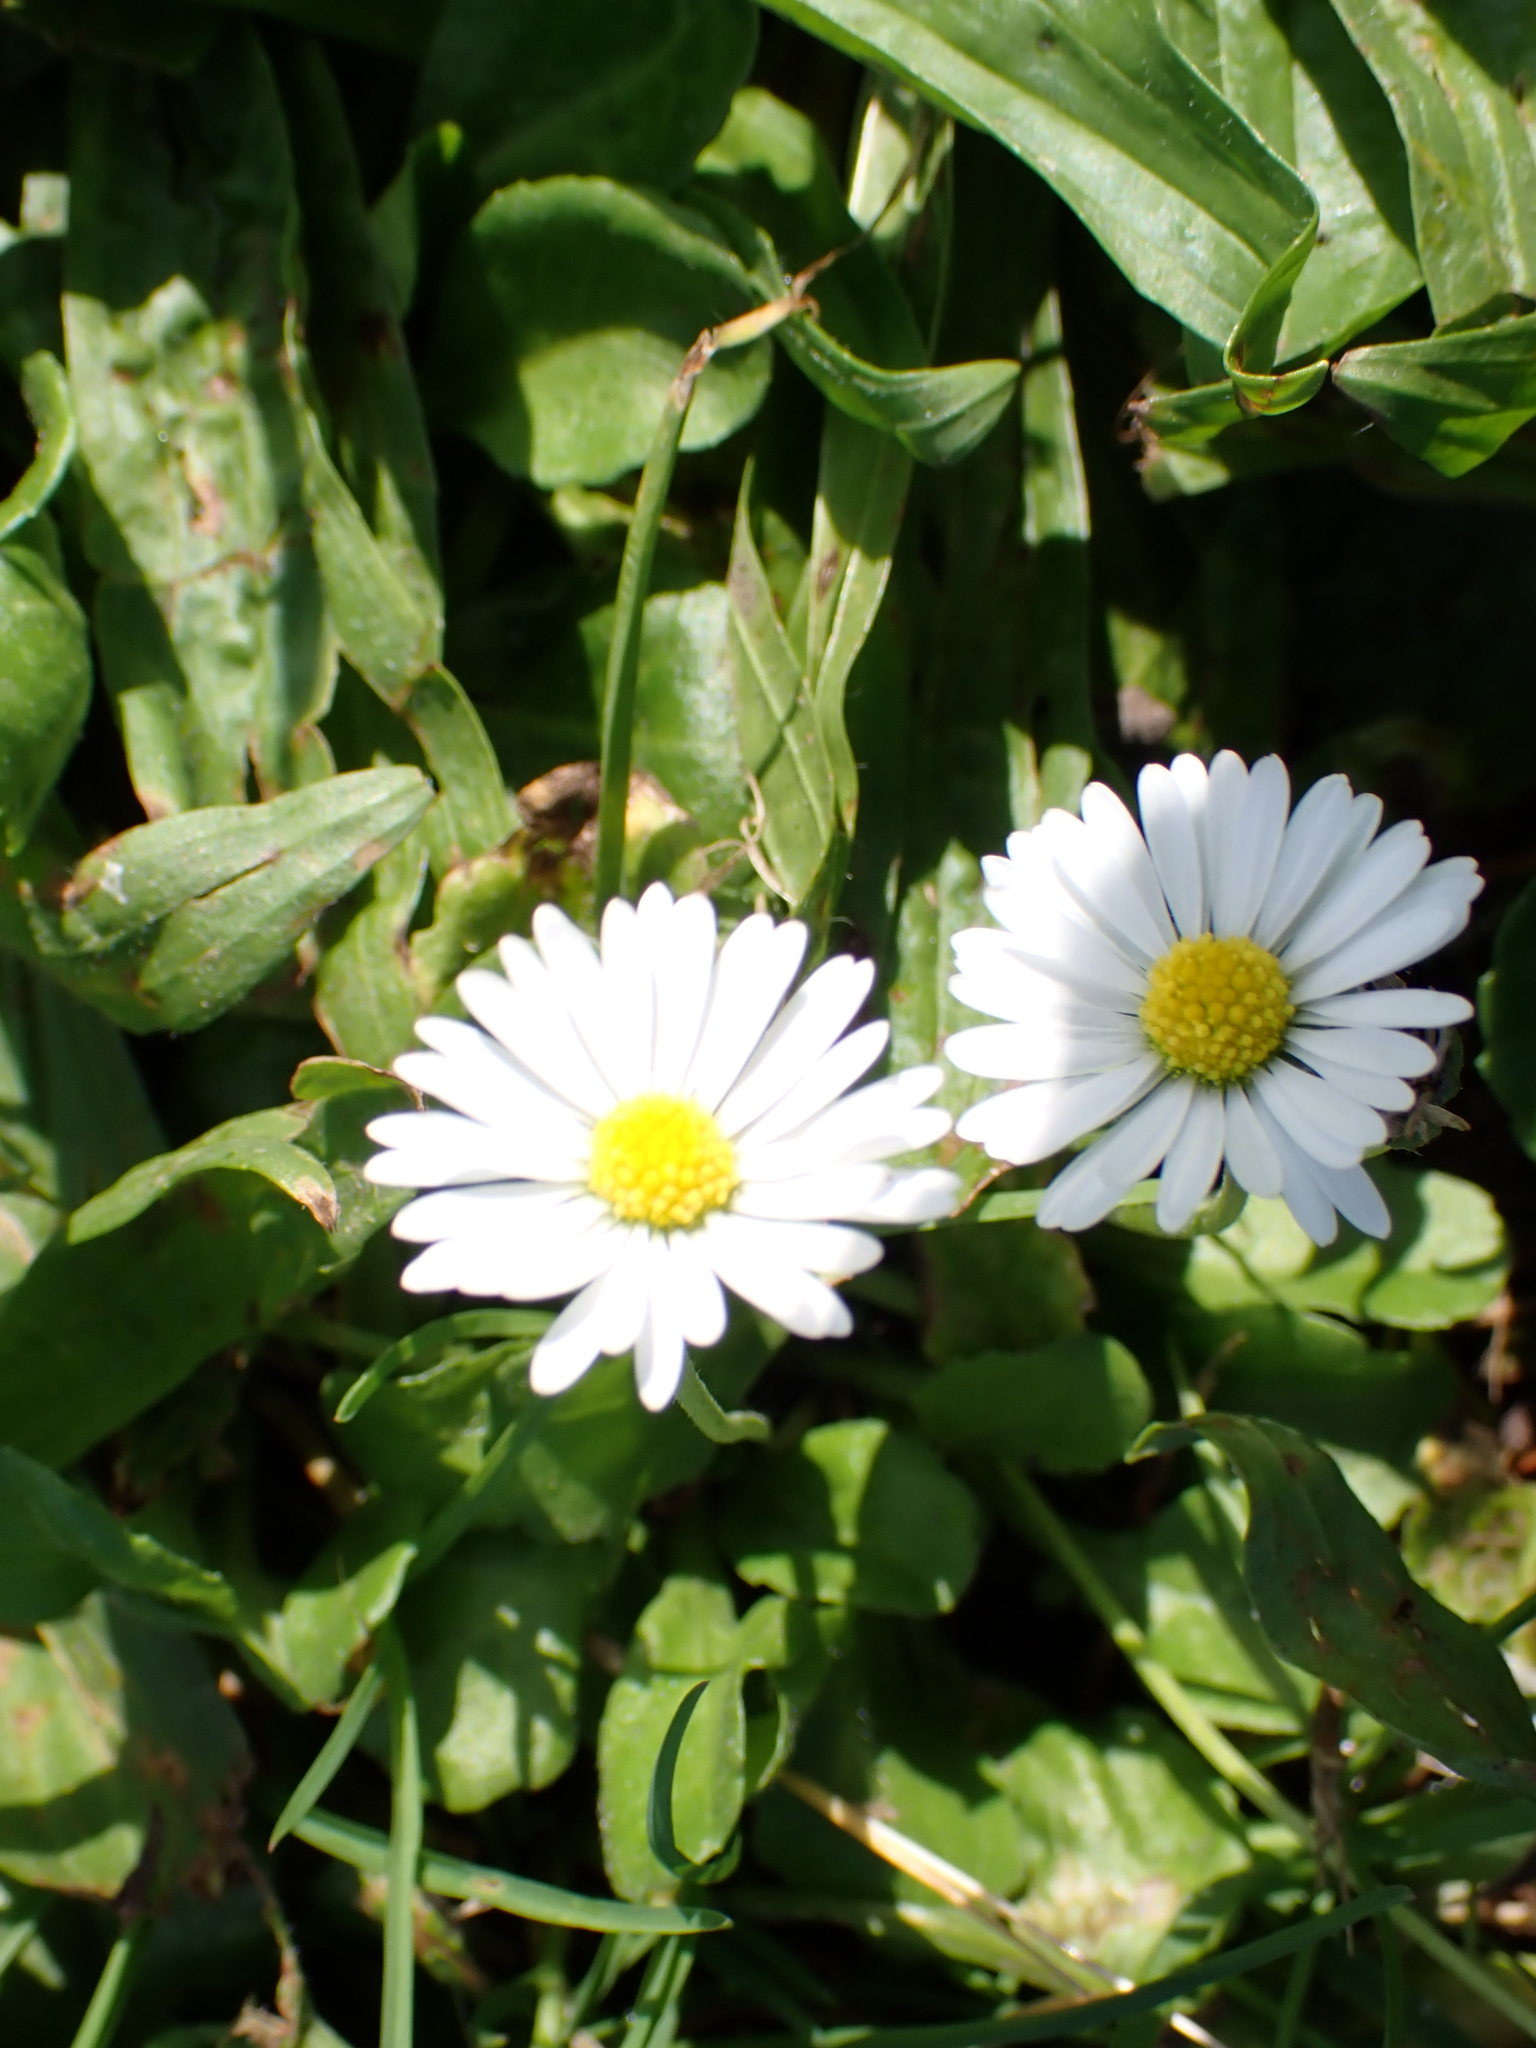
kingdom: Plantae
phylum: Tracheophyta
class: Magnoliopsida
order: Asterales
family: Asteraceae
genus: Bellis
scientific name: Bellis perennis
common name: Lawndaisy
